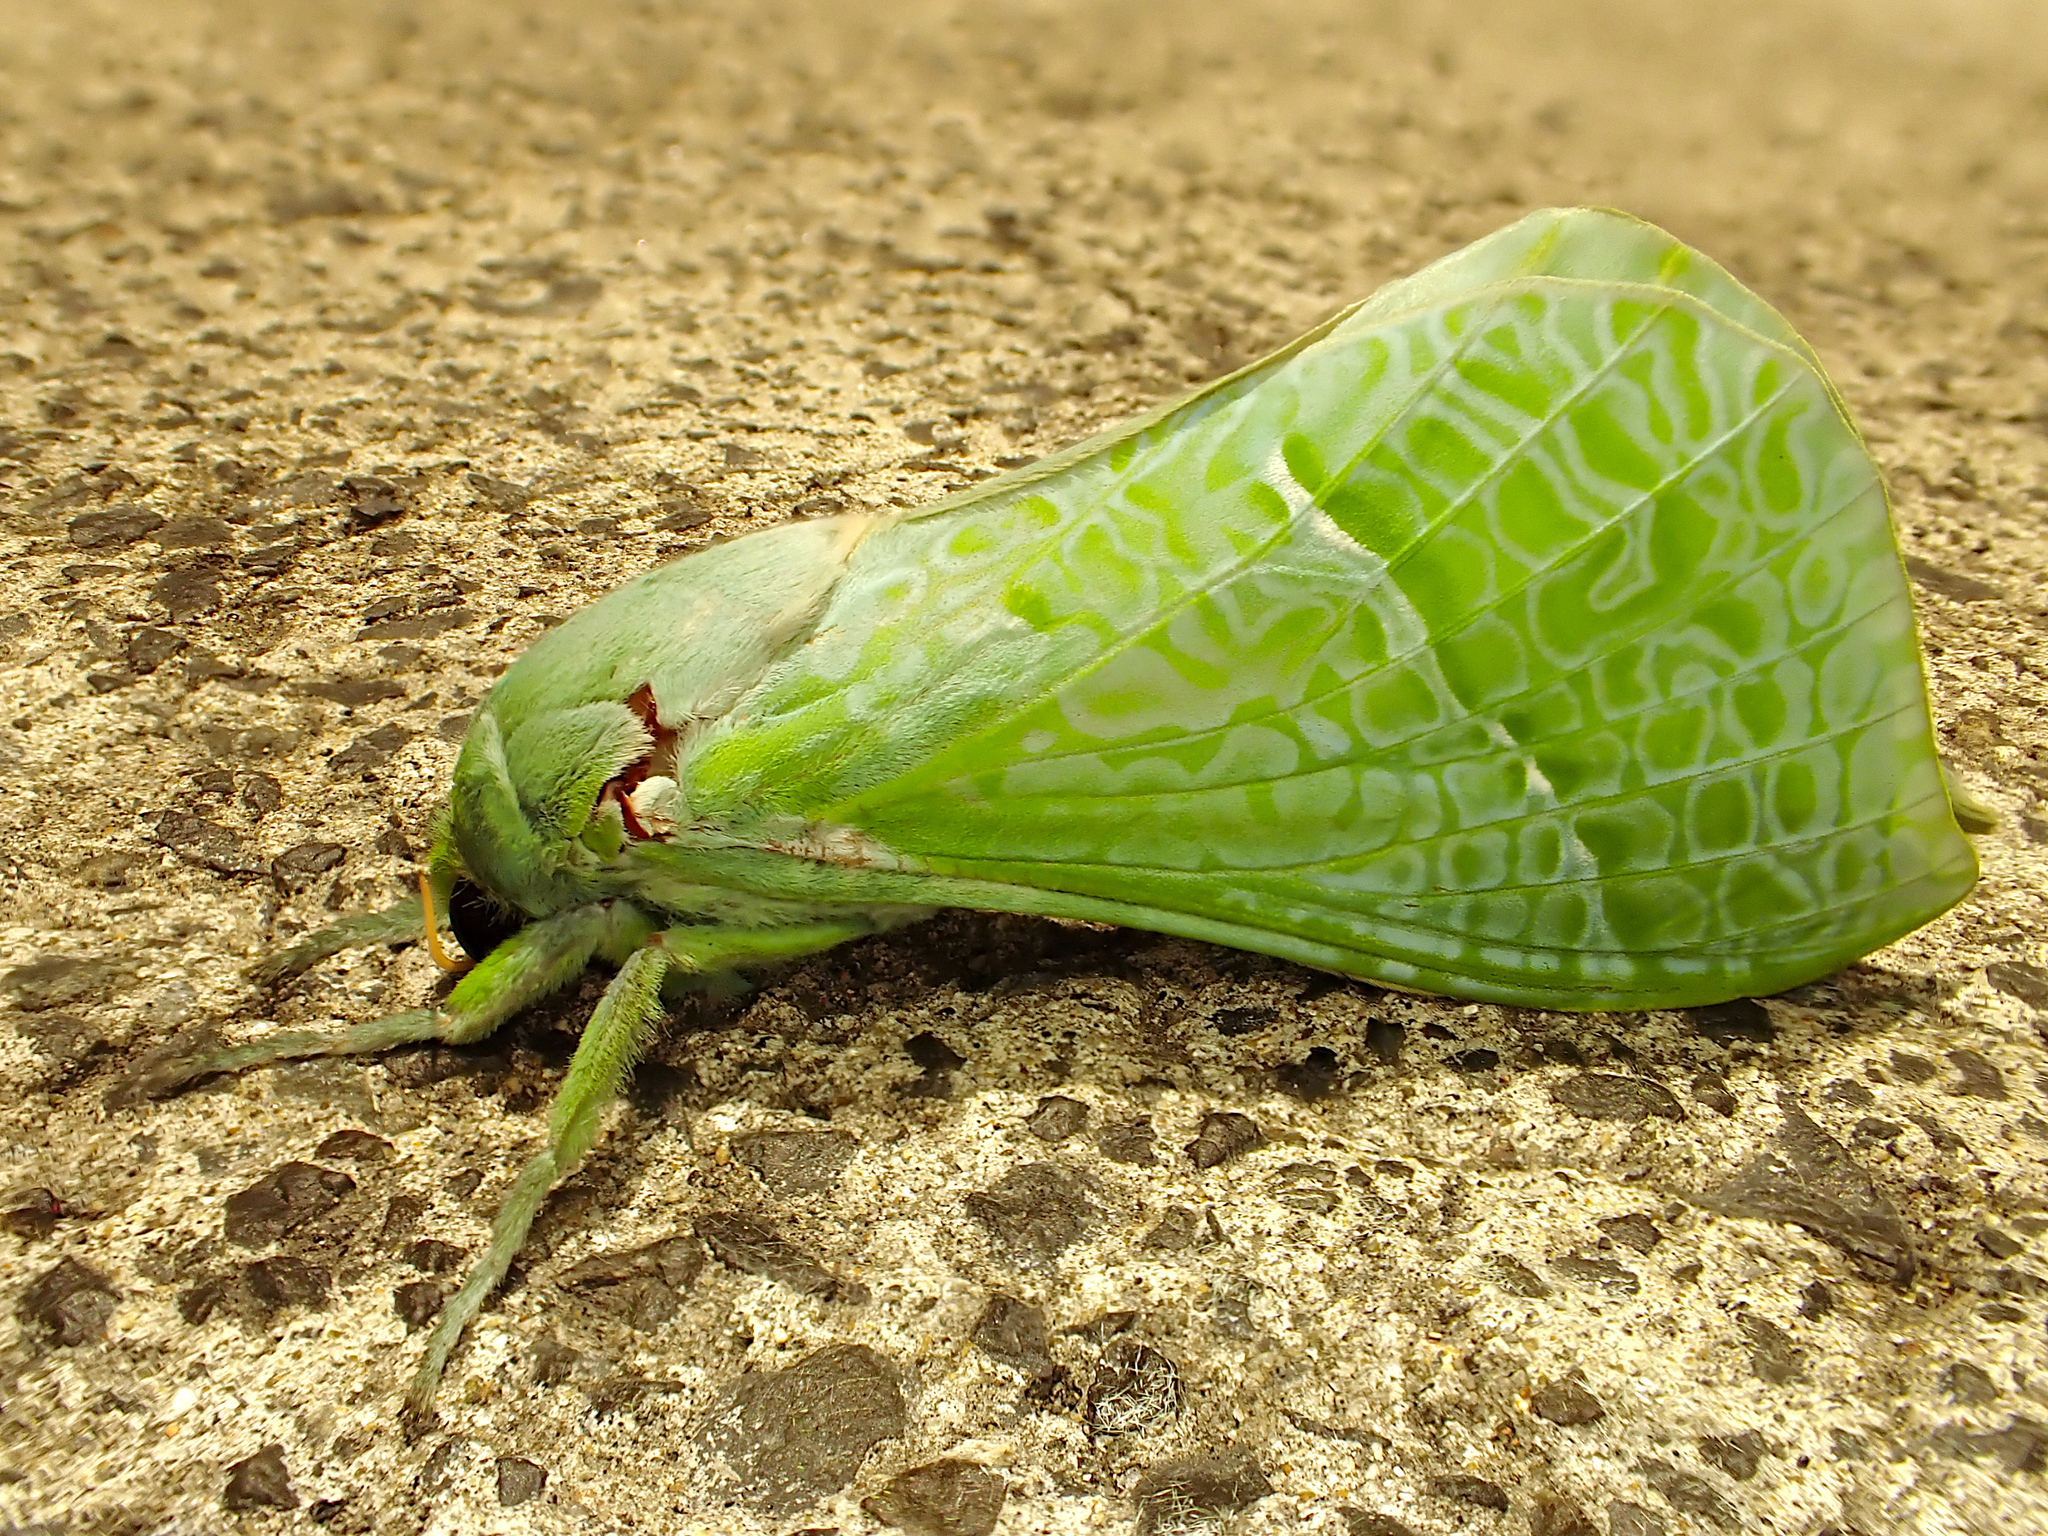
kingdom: Animalia
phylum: Arthropoda
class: Insecta
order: Lepidoptera
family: Hepialidae
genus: Aenetus
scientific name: Aenetus virescens
